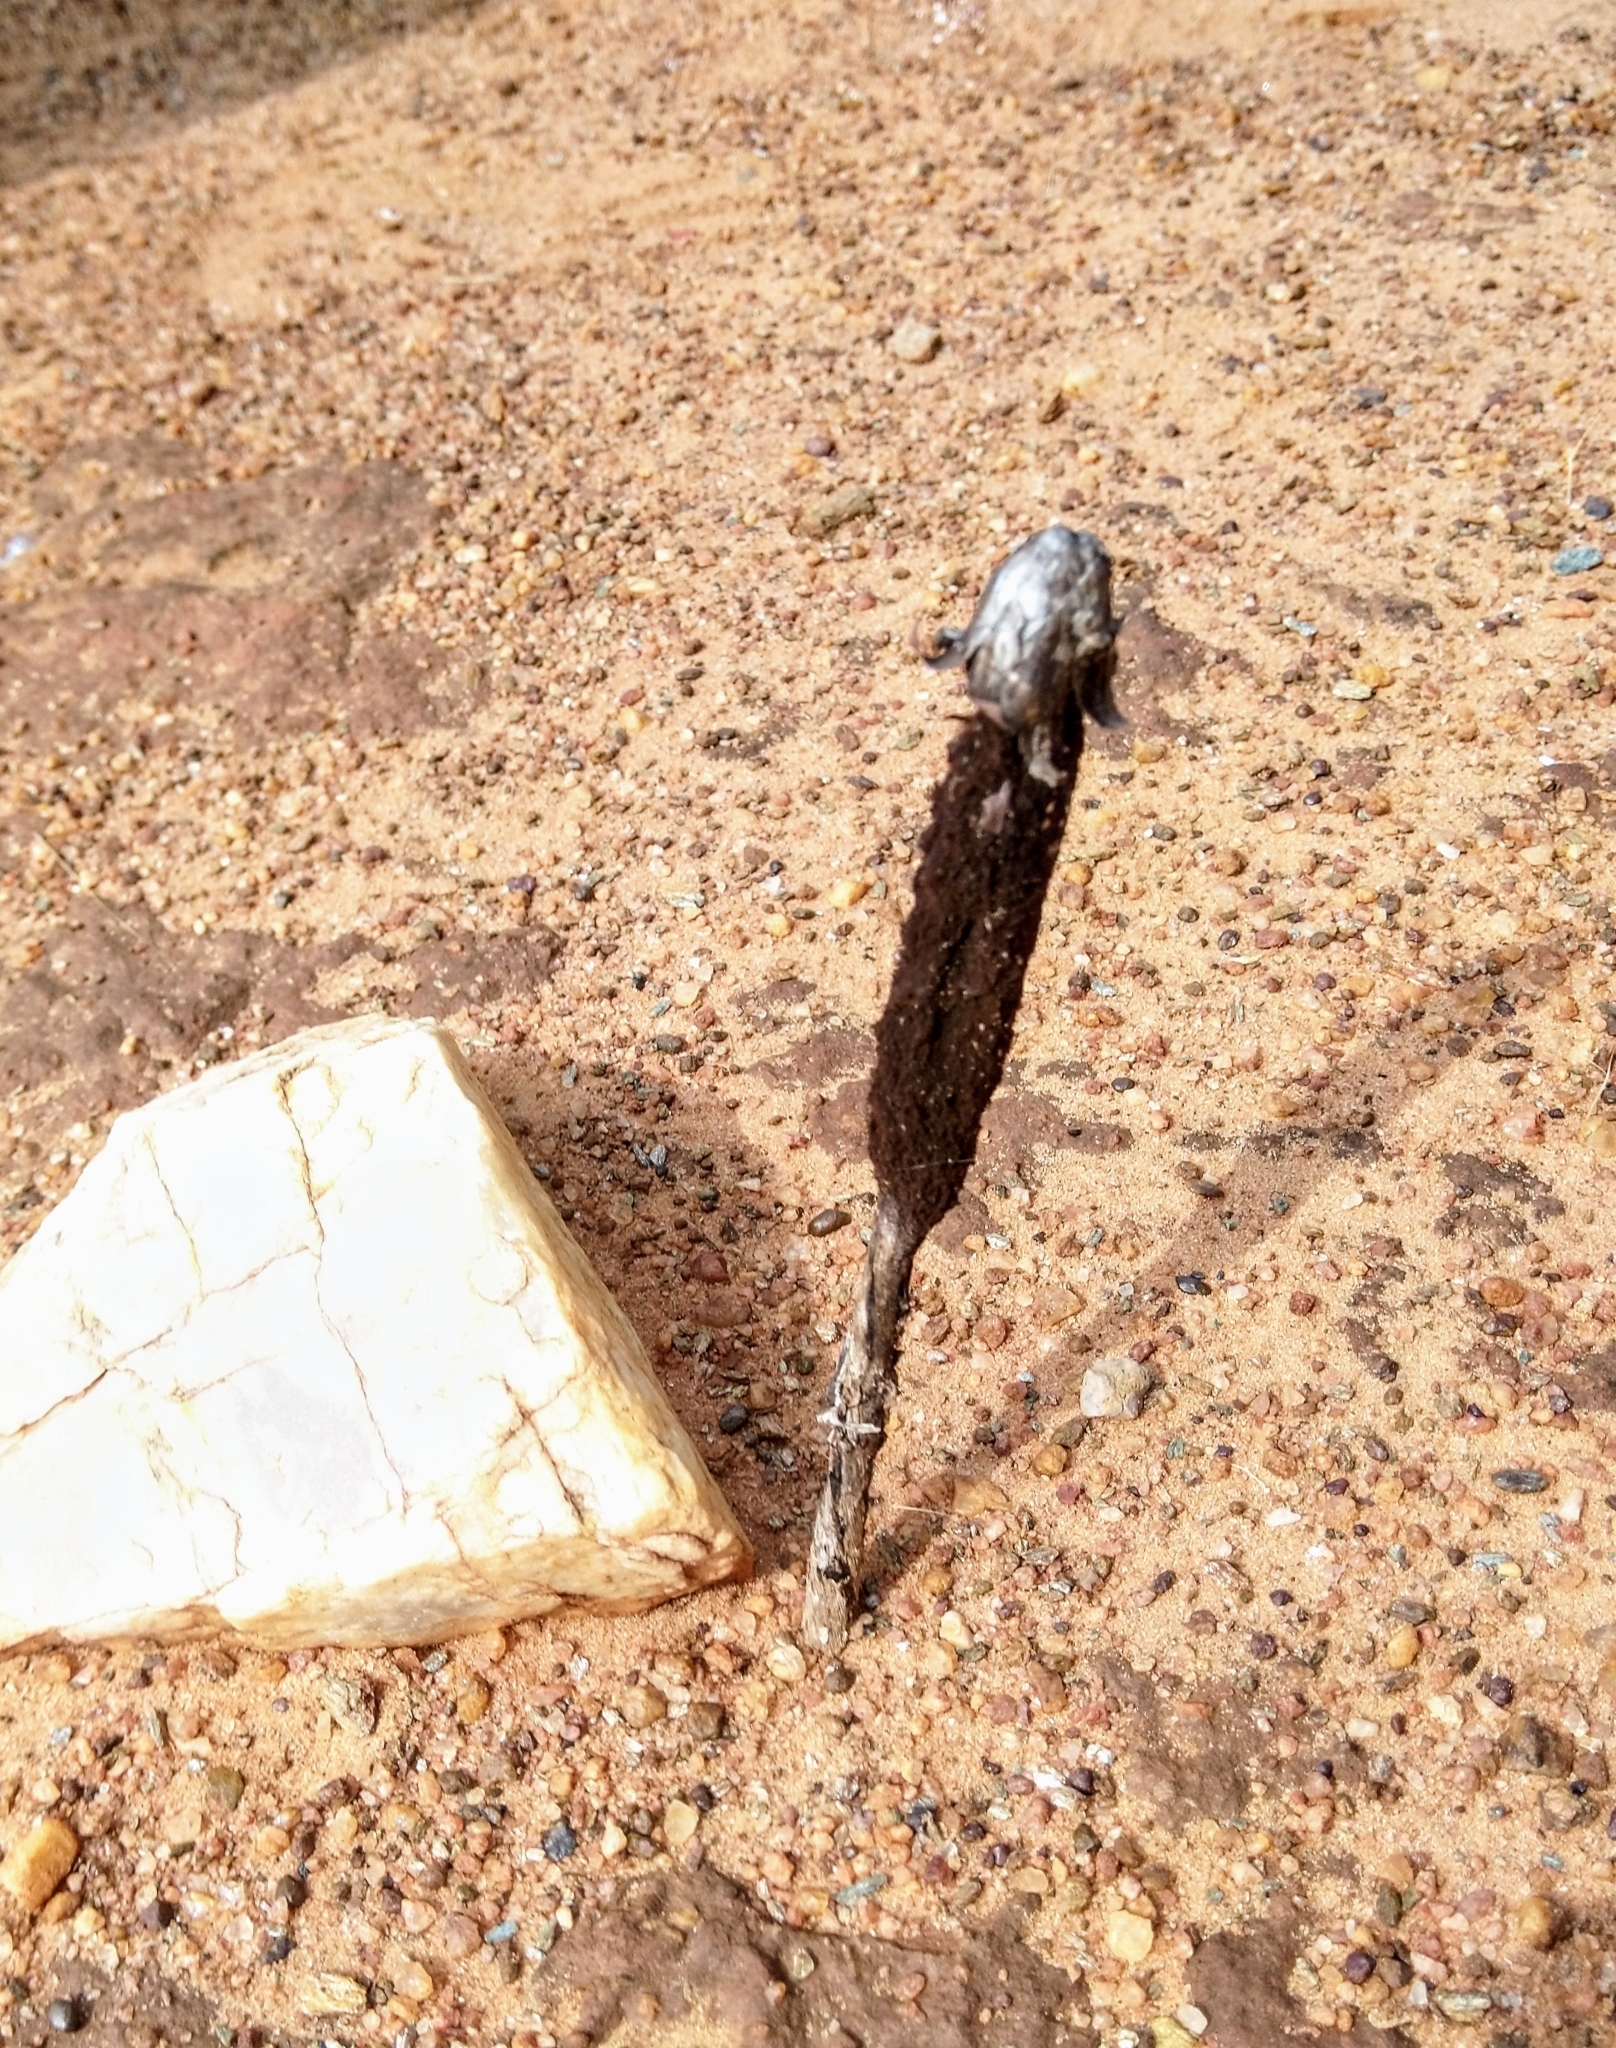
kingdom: Fungi
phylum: Basidiomycota
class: Agaricomycetes
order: Agaricales
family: Agaricaceae
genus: Podaxis
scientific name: Podaxis pistillaris
